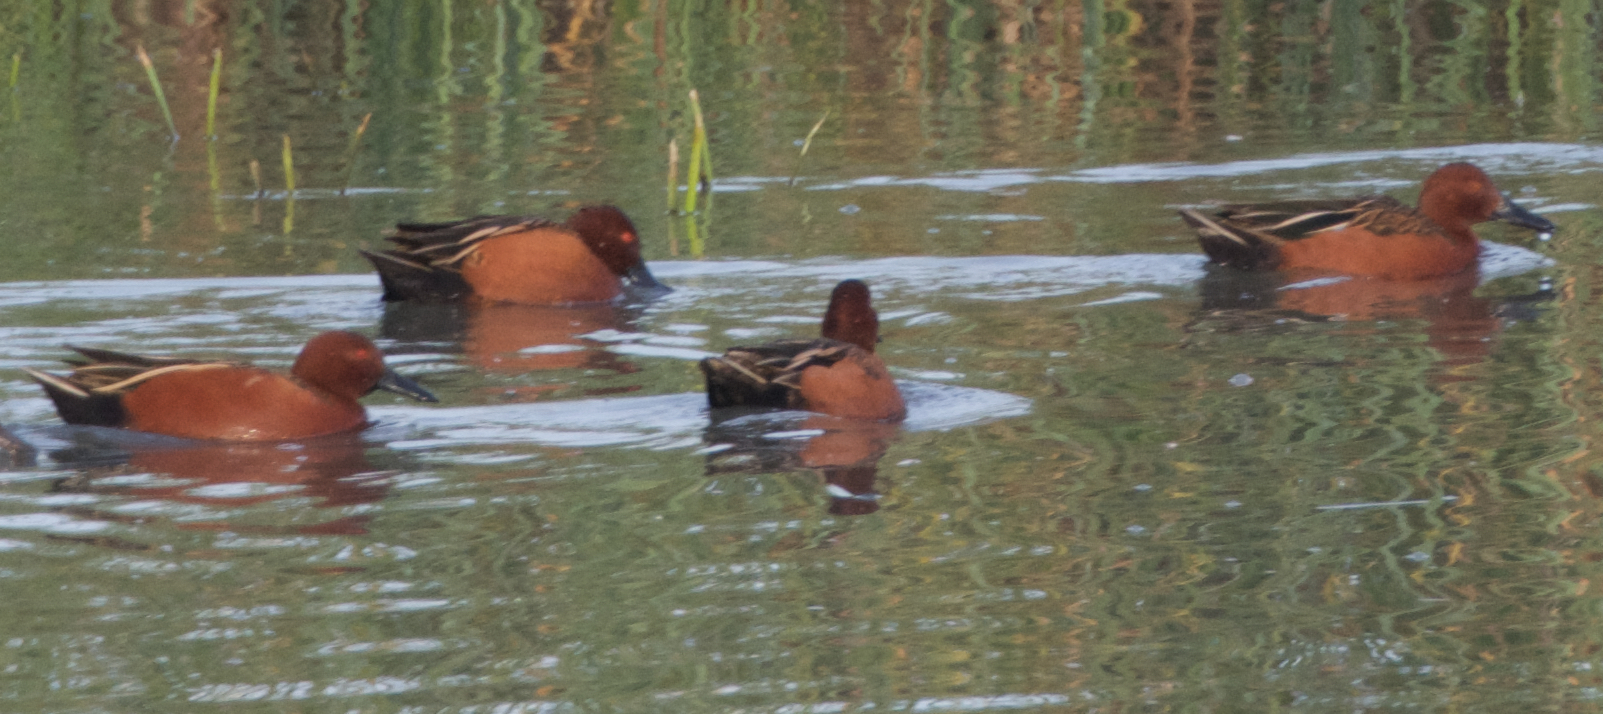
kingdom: Animalia
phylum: Chordata
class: Aves
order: Anseriformes
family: Anatidae
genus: Spatula
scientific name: Spatula cyanoptera
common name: Cinnamon teal
